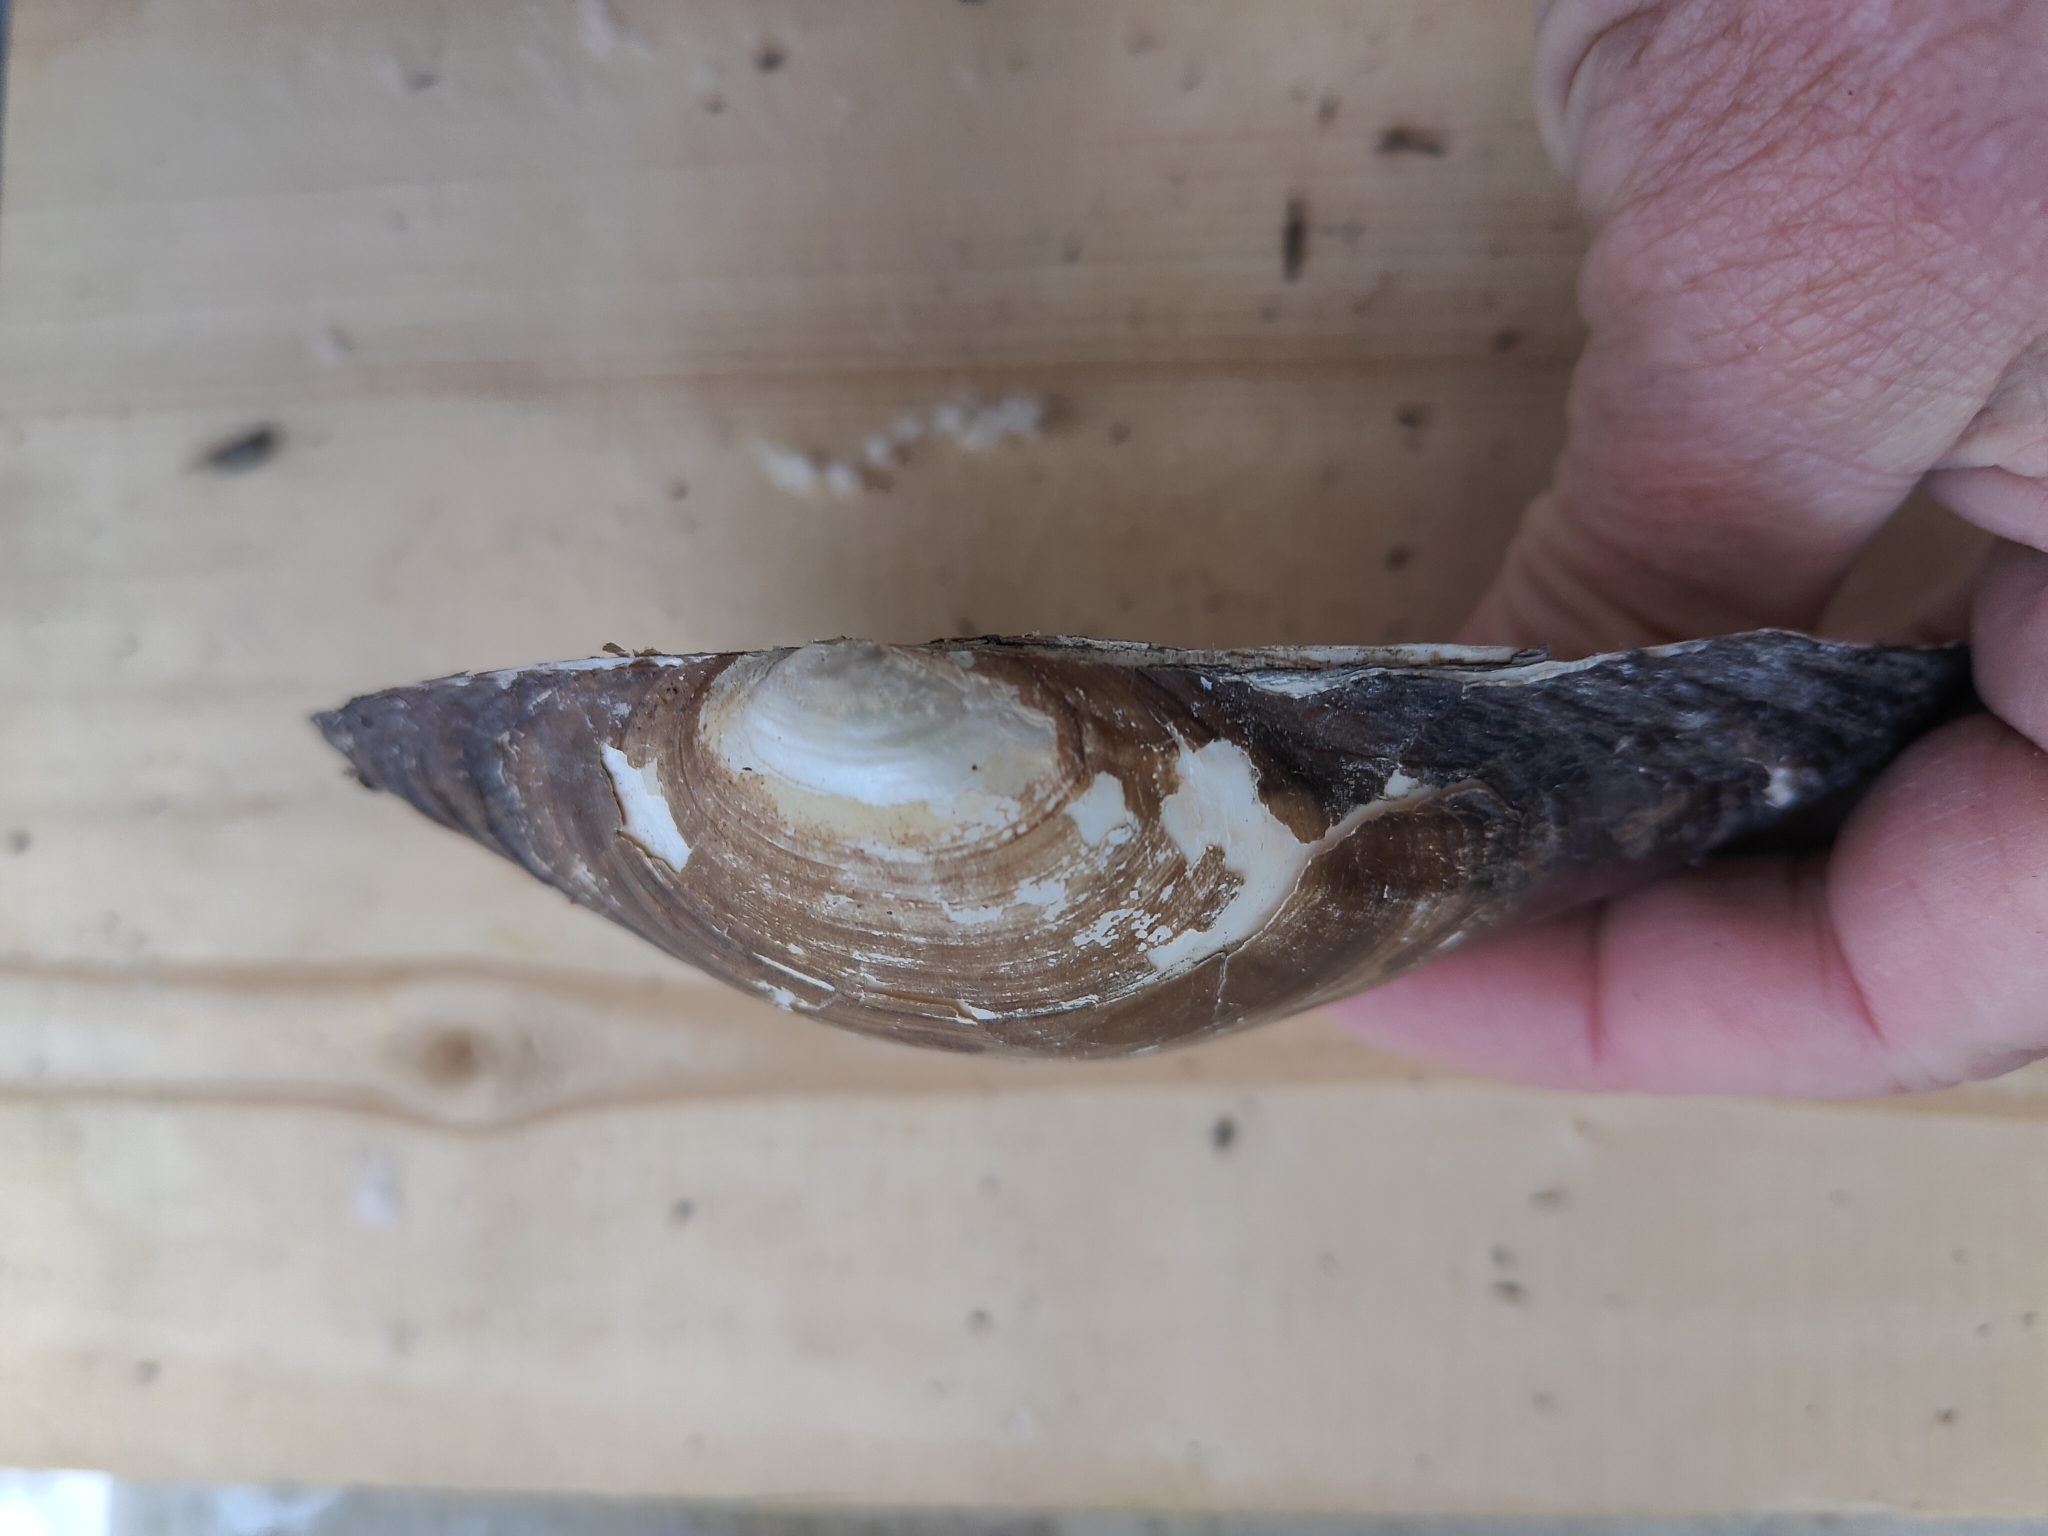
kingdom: Animalia
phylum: Mollusca
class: Bivalvia
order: Unionida
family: Unionidae
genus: Pyganodon
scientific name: Pyganodon grandis
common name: Giant floater
